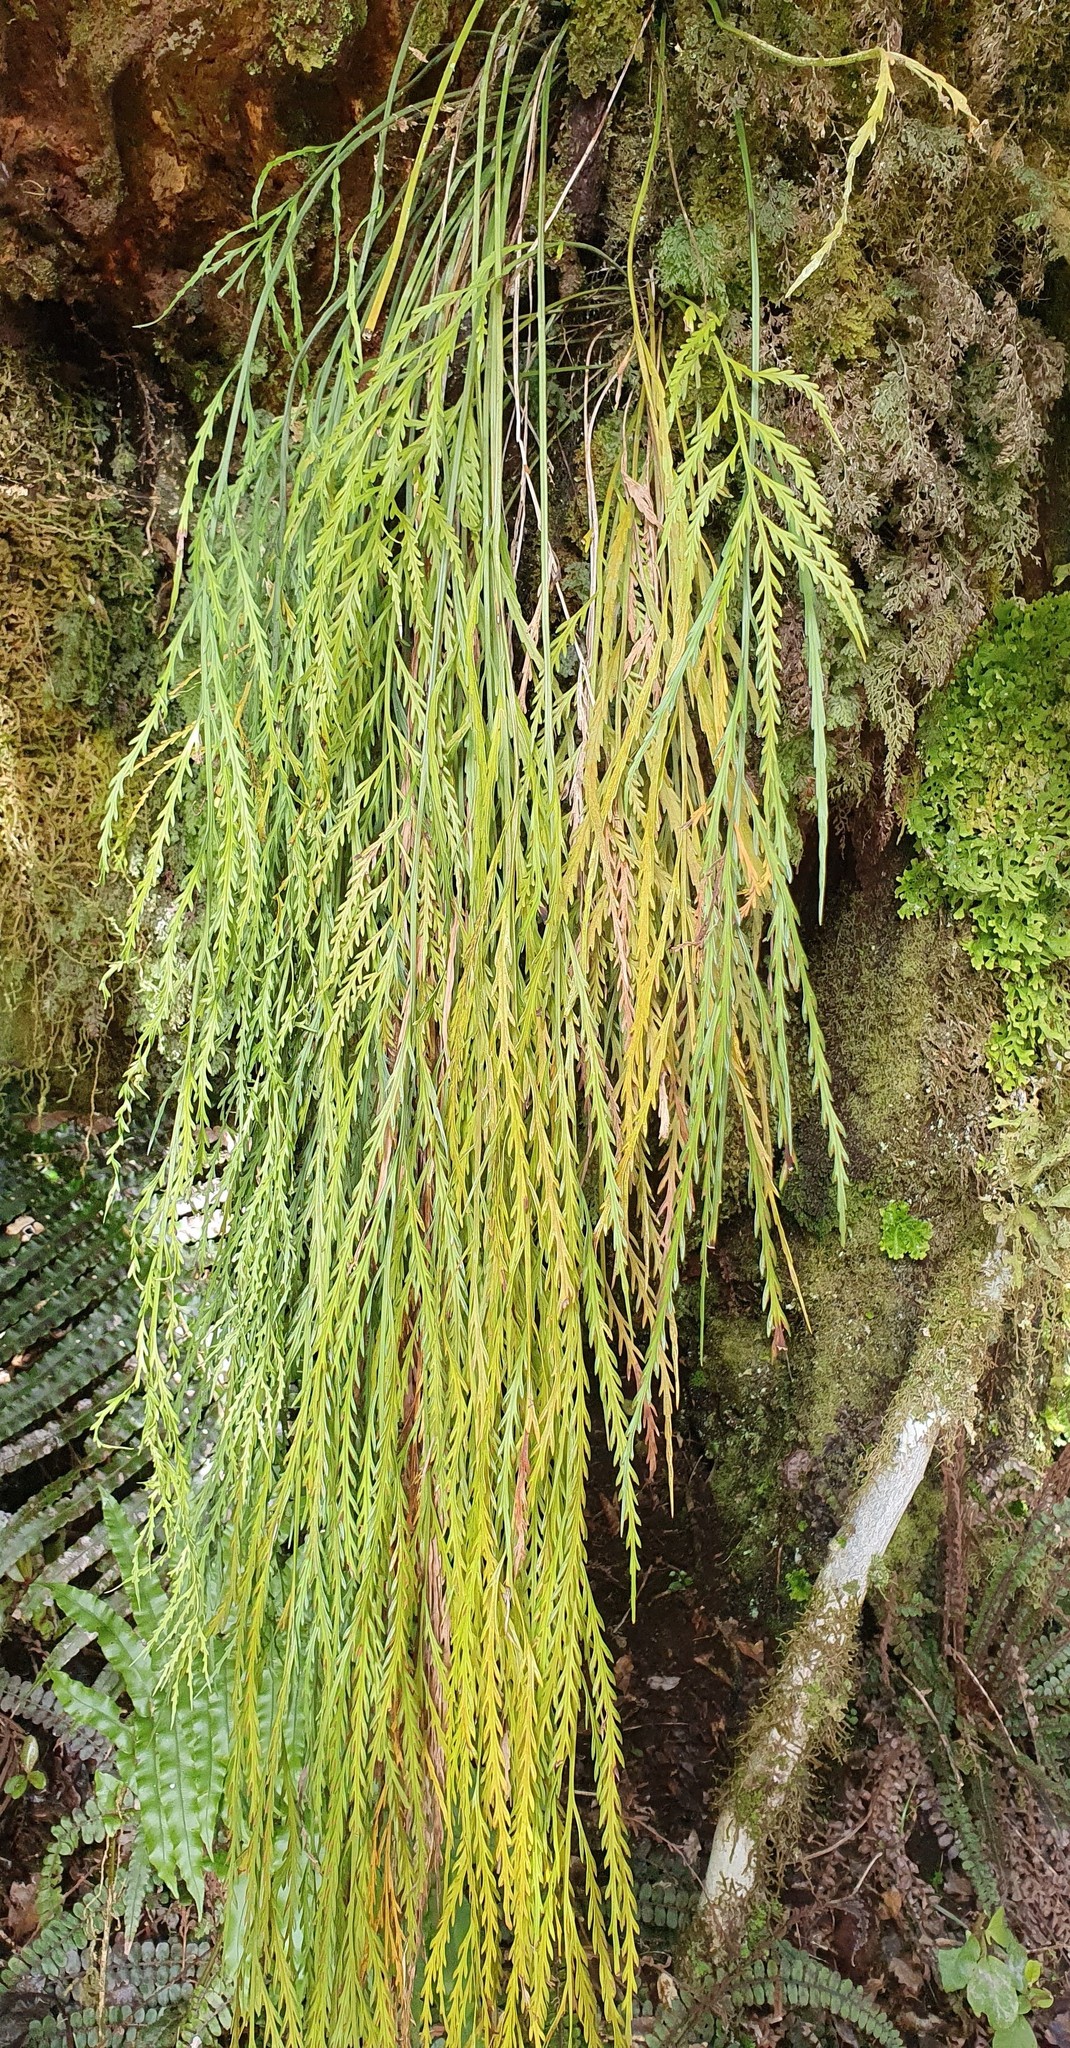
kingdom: Plantae
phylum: Tracheophyta
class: Polypodiopsida
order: Polypodiales
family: Aspleniaceae
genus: Asplenium
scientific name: Asplenium flaccidum
